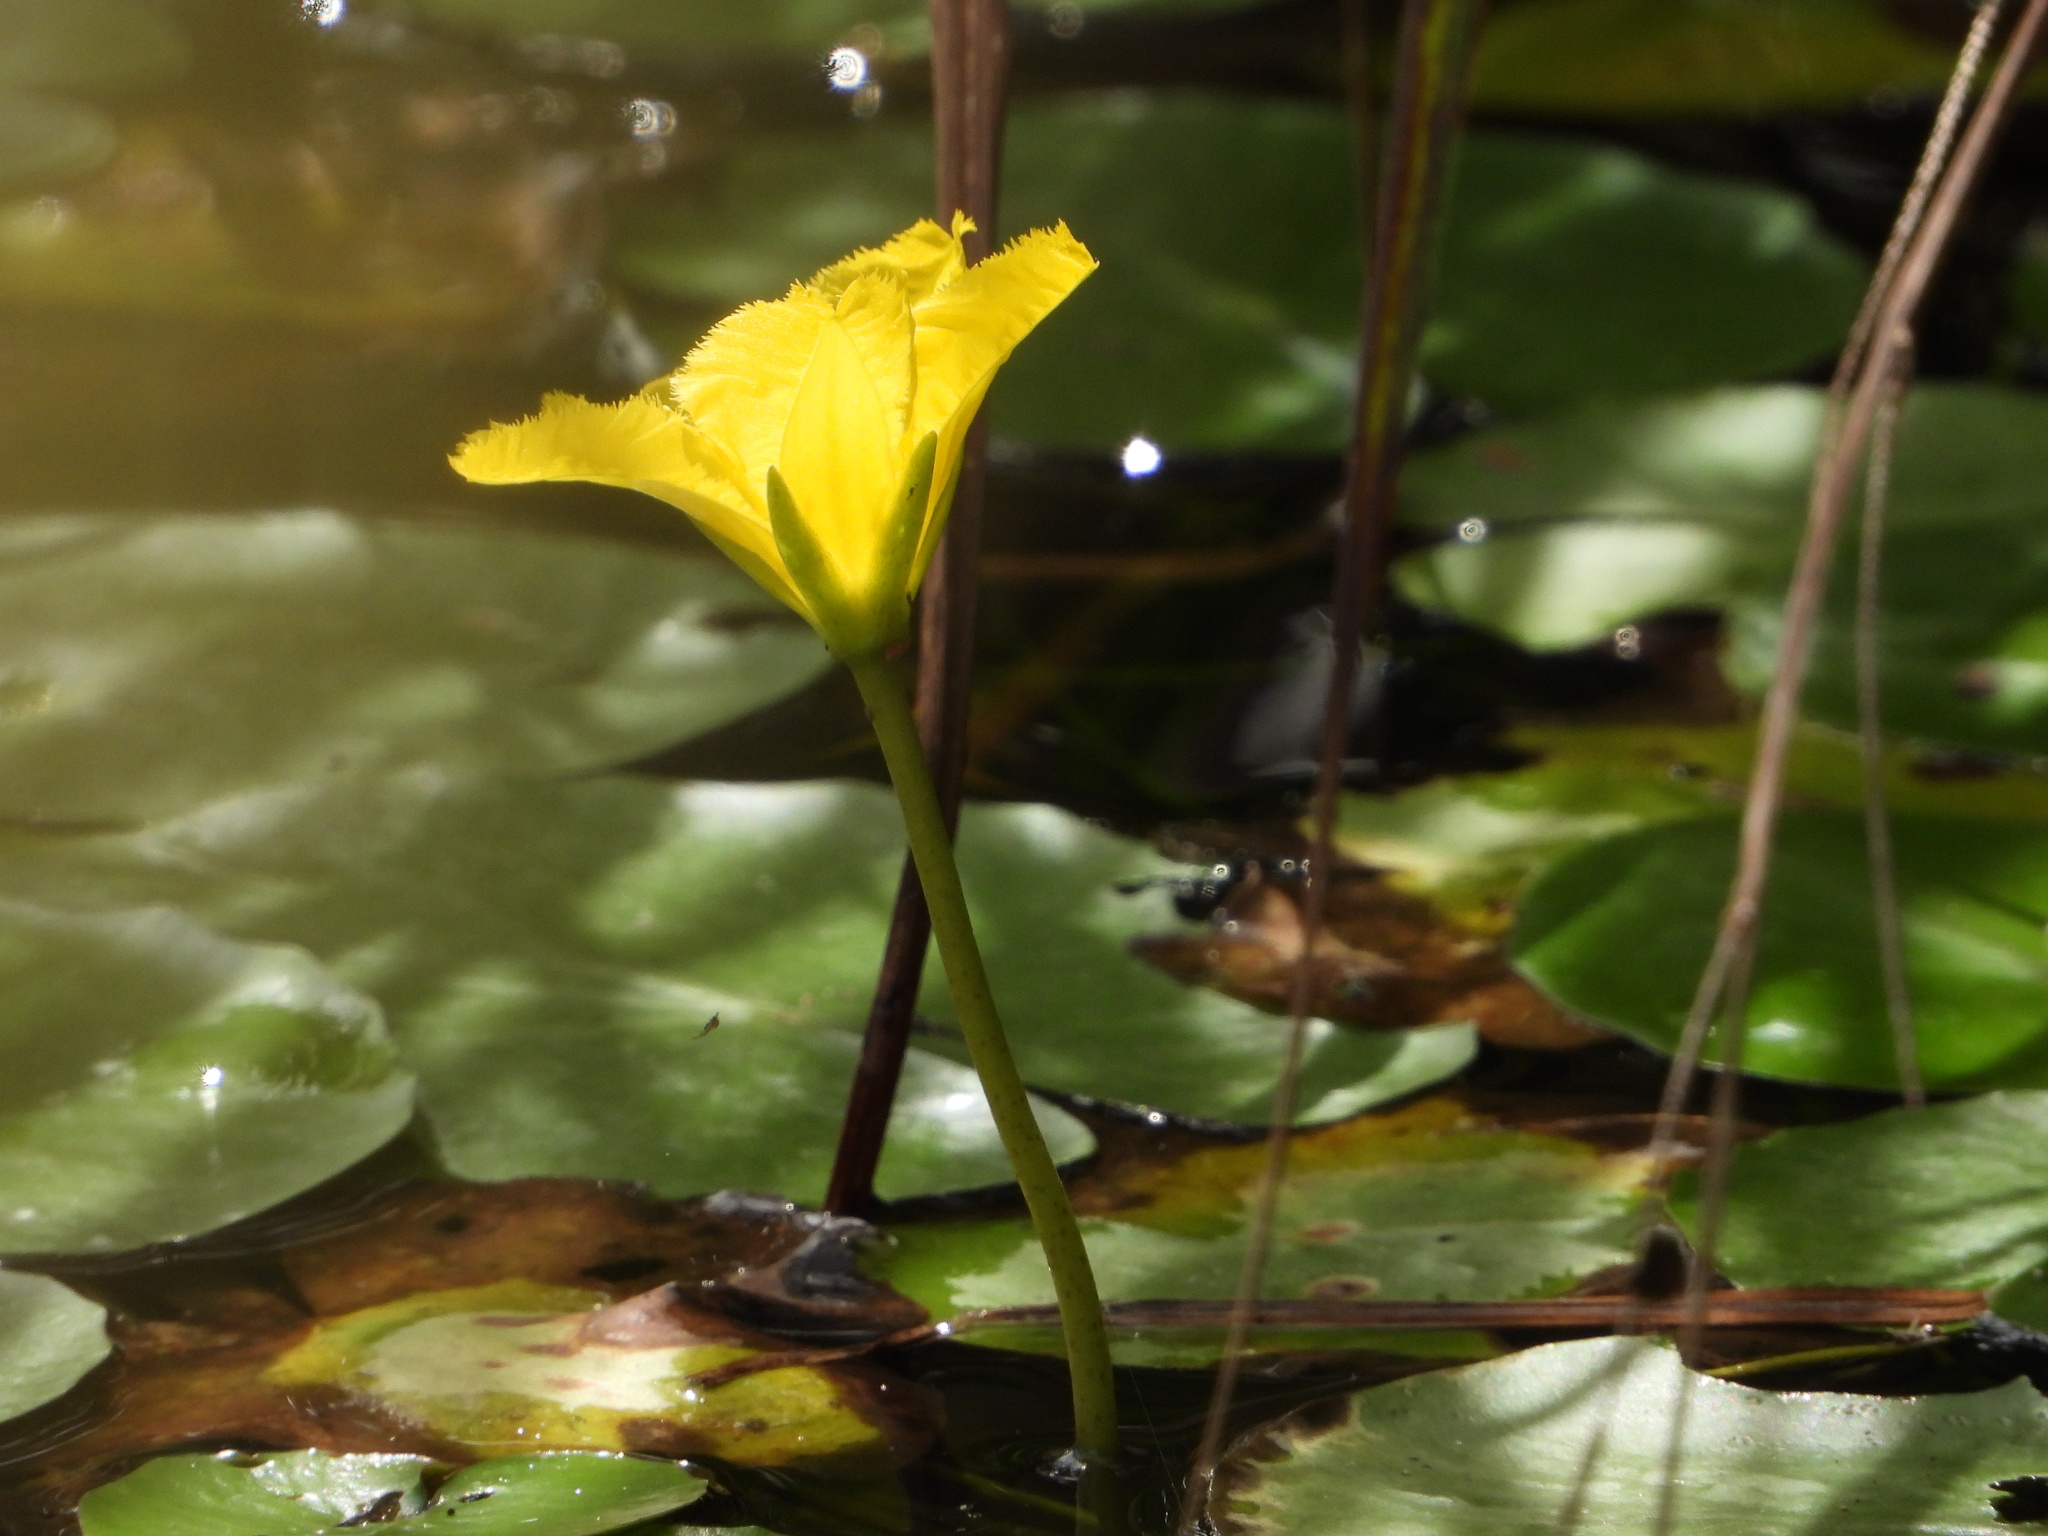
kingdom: Plantae
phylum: Tracheophyta
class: Magnoliopsida
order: Asterales
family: Menyanthaceae
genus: Nymphoides
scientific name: Nymphoides peltata
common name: Fringed water-lily
